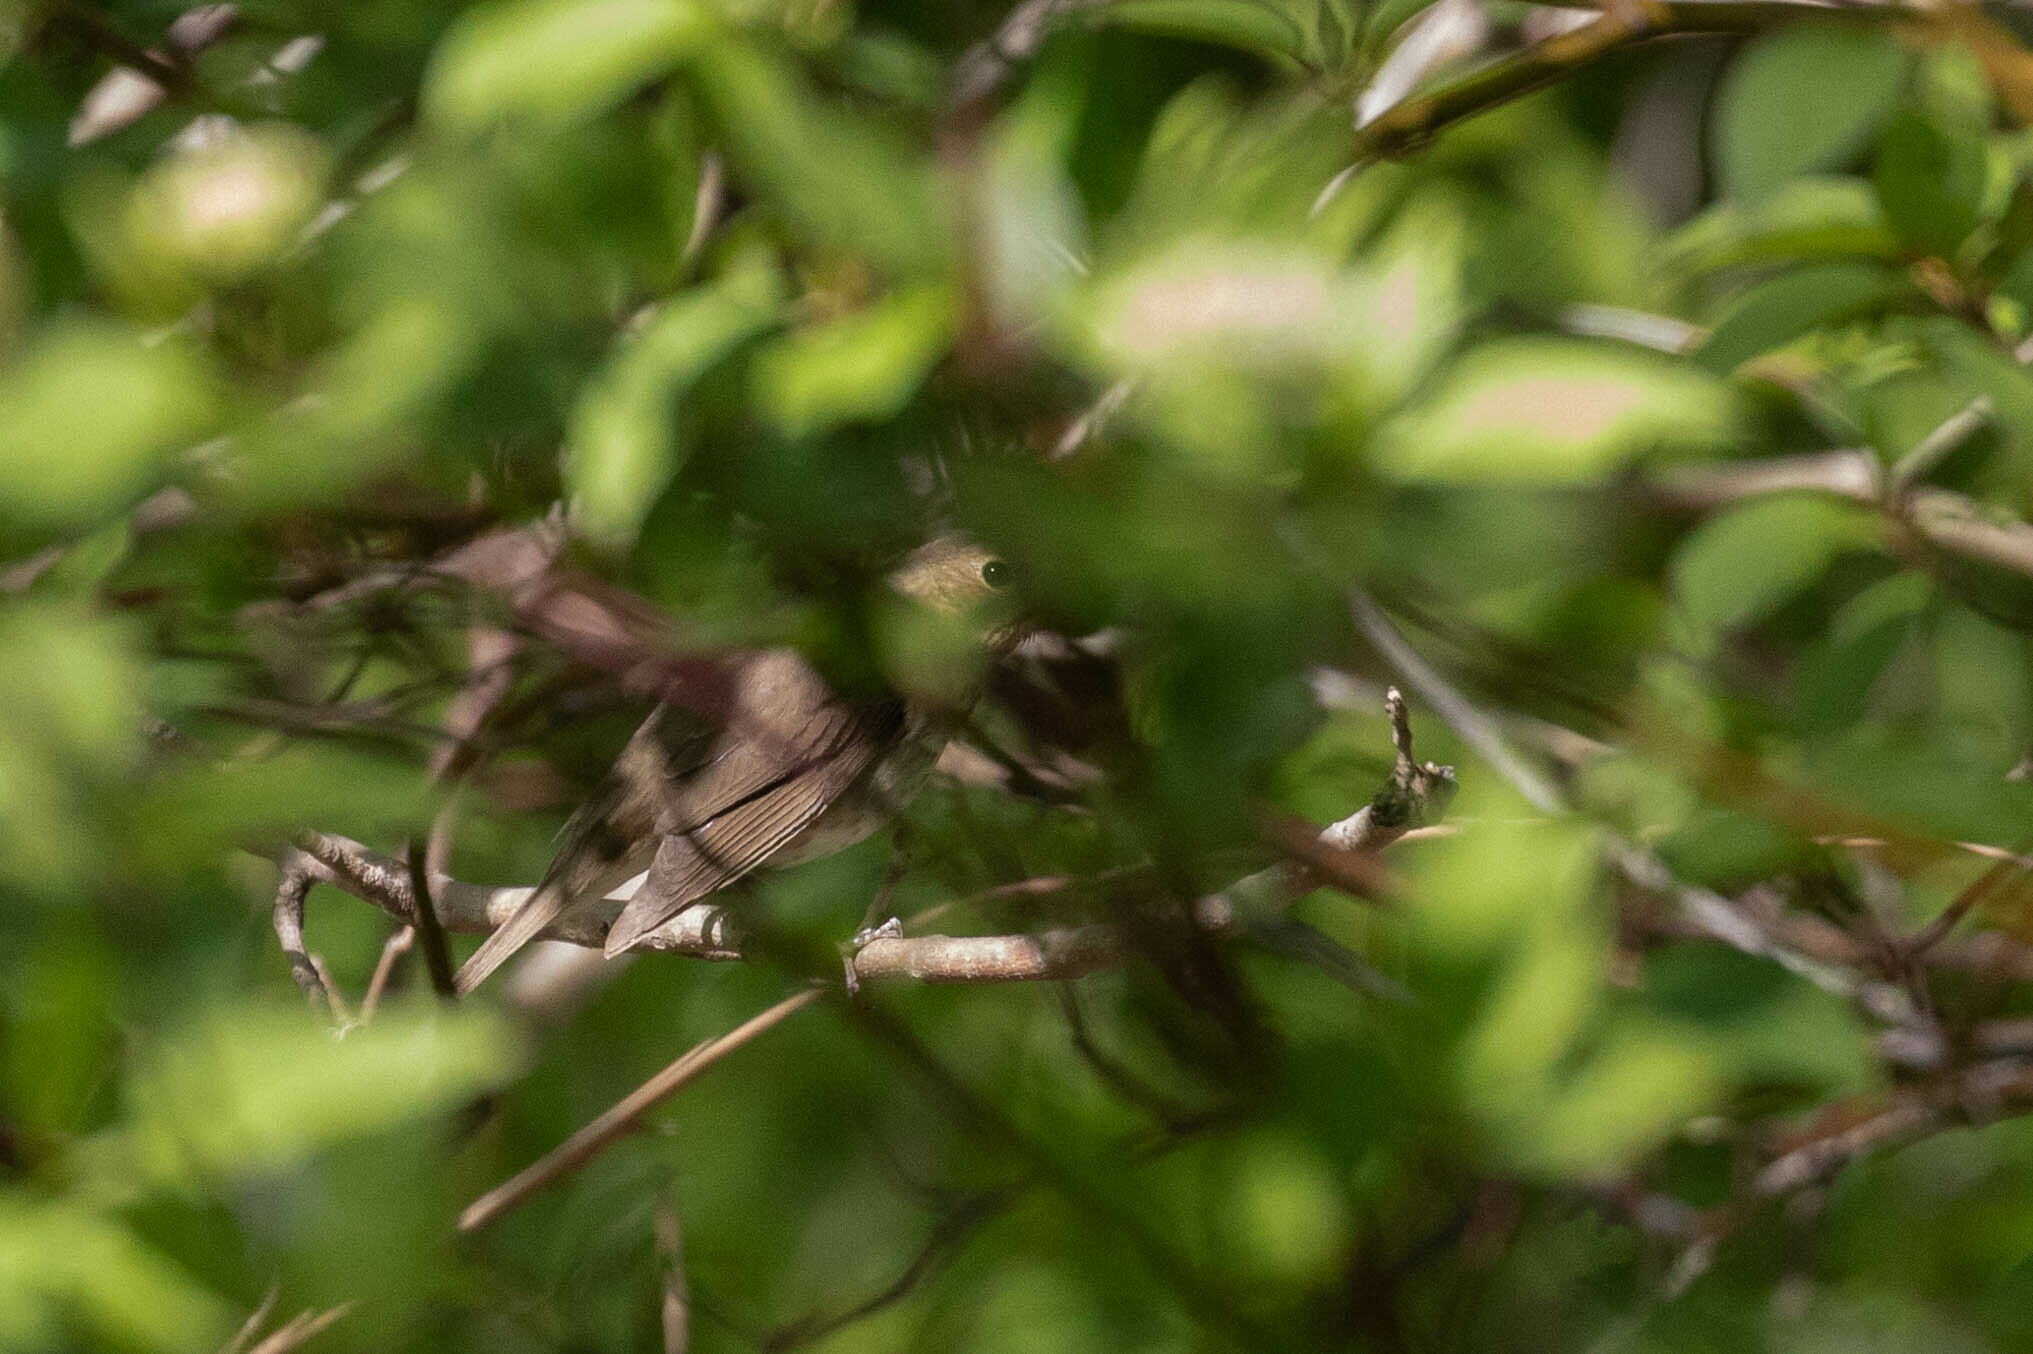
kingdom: Animalia
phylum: Chordata
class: Aves
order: Passeriformes
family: Turdidae
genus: Catharus
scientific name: Catharus ustulatus
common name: Swainson's thrush
